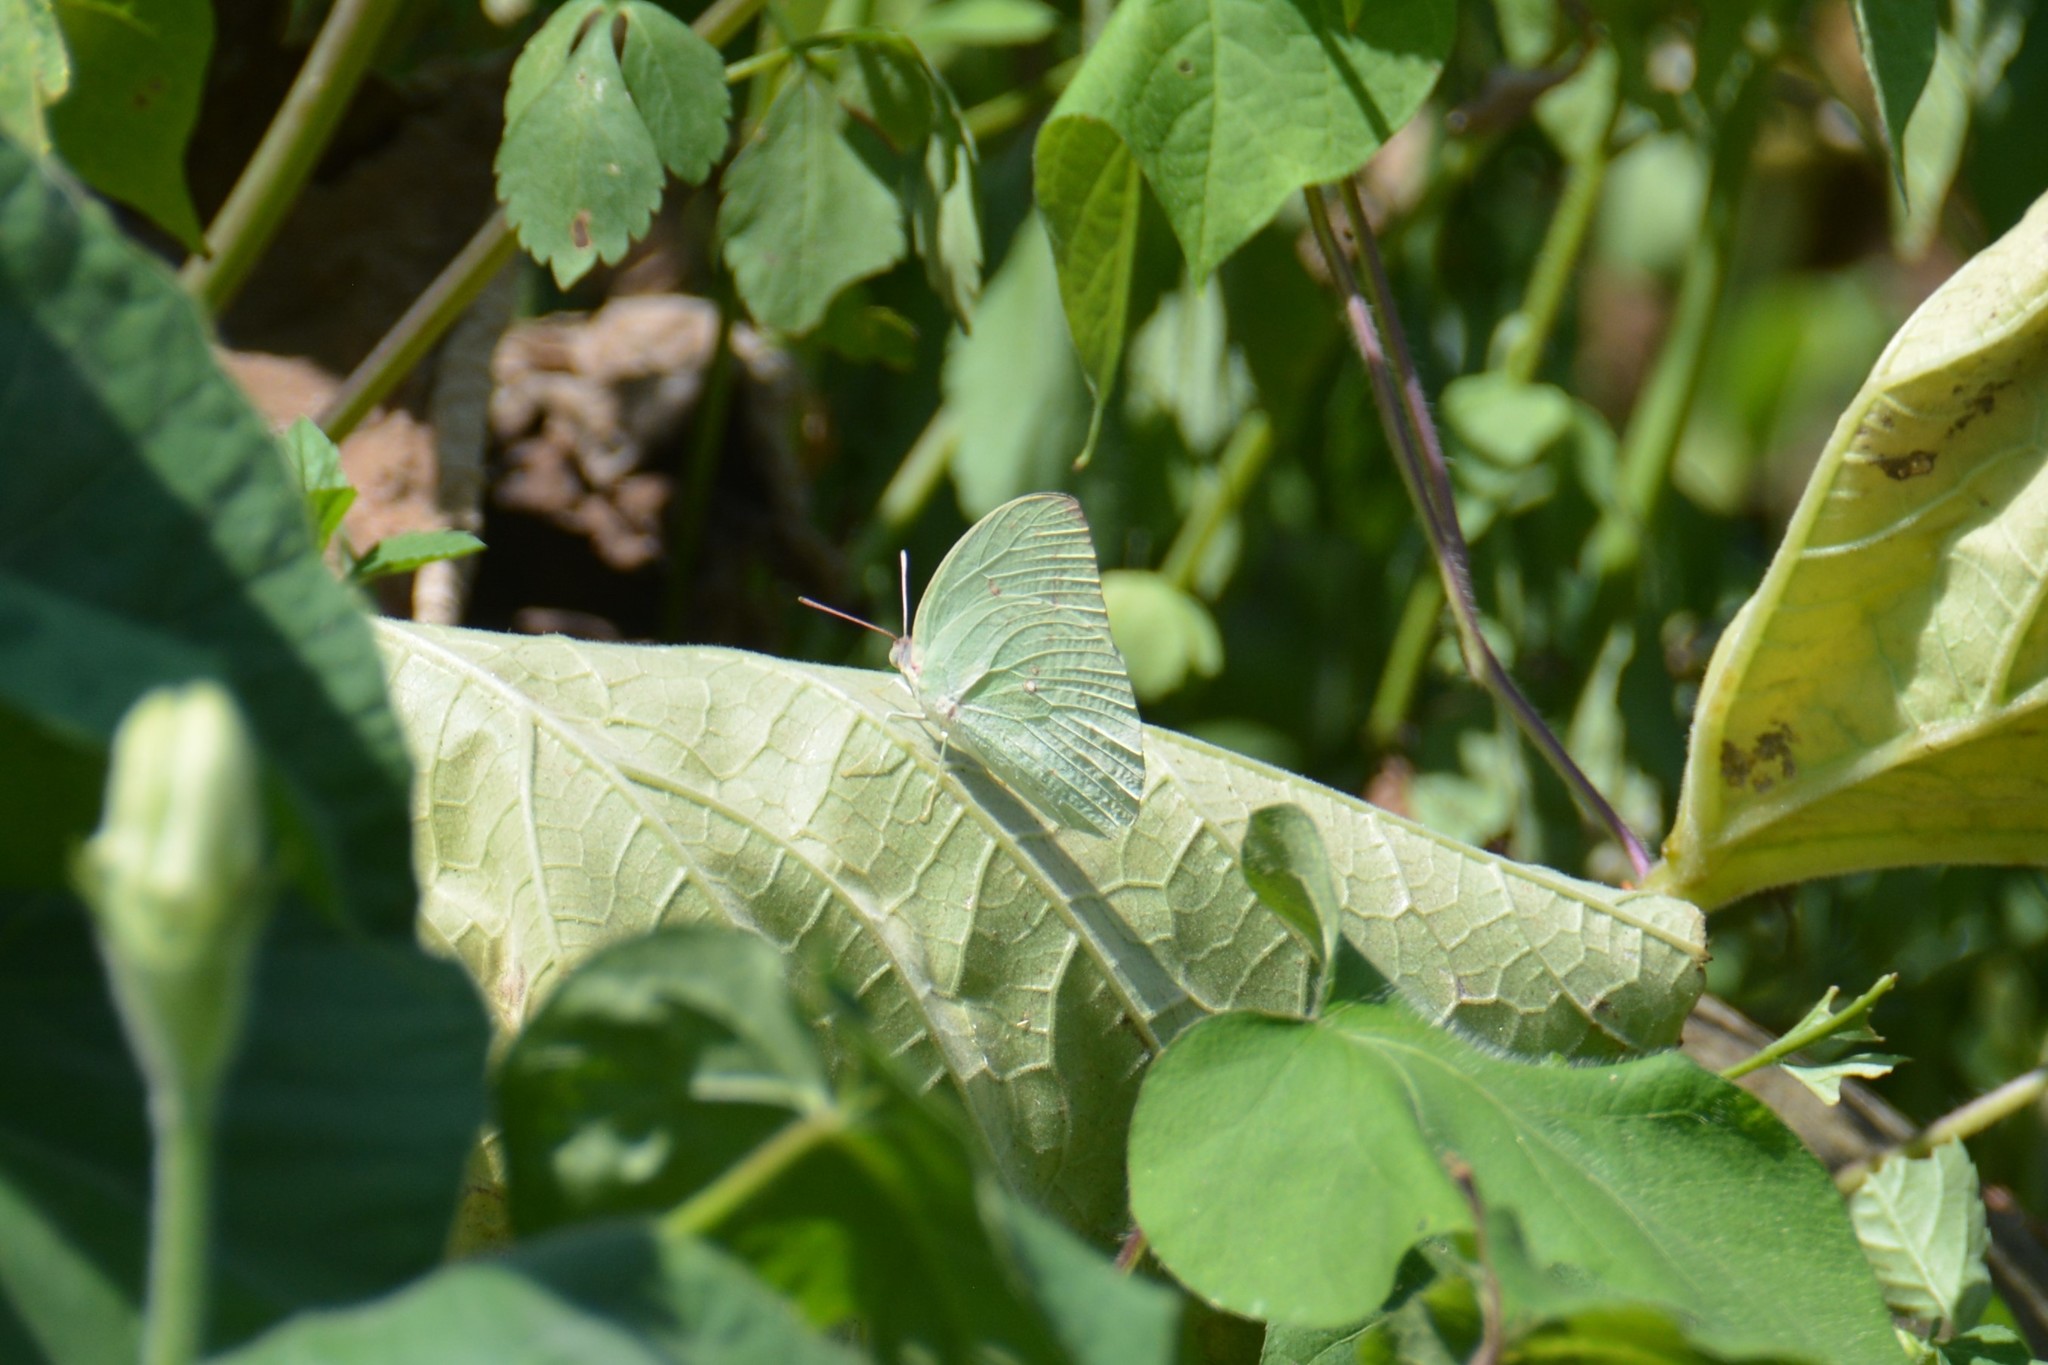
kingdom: Animalia
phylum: Arthropoda
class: Insecta
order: Lepidoptera
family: Pieridae
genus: Catopsilia
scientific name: Catopsilia pomona
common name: Common emigrant
